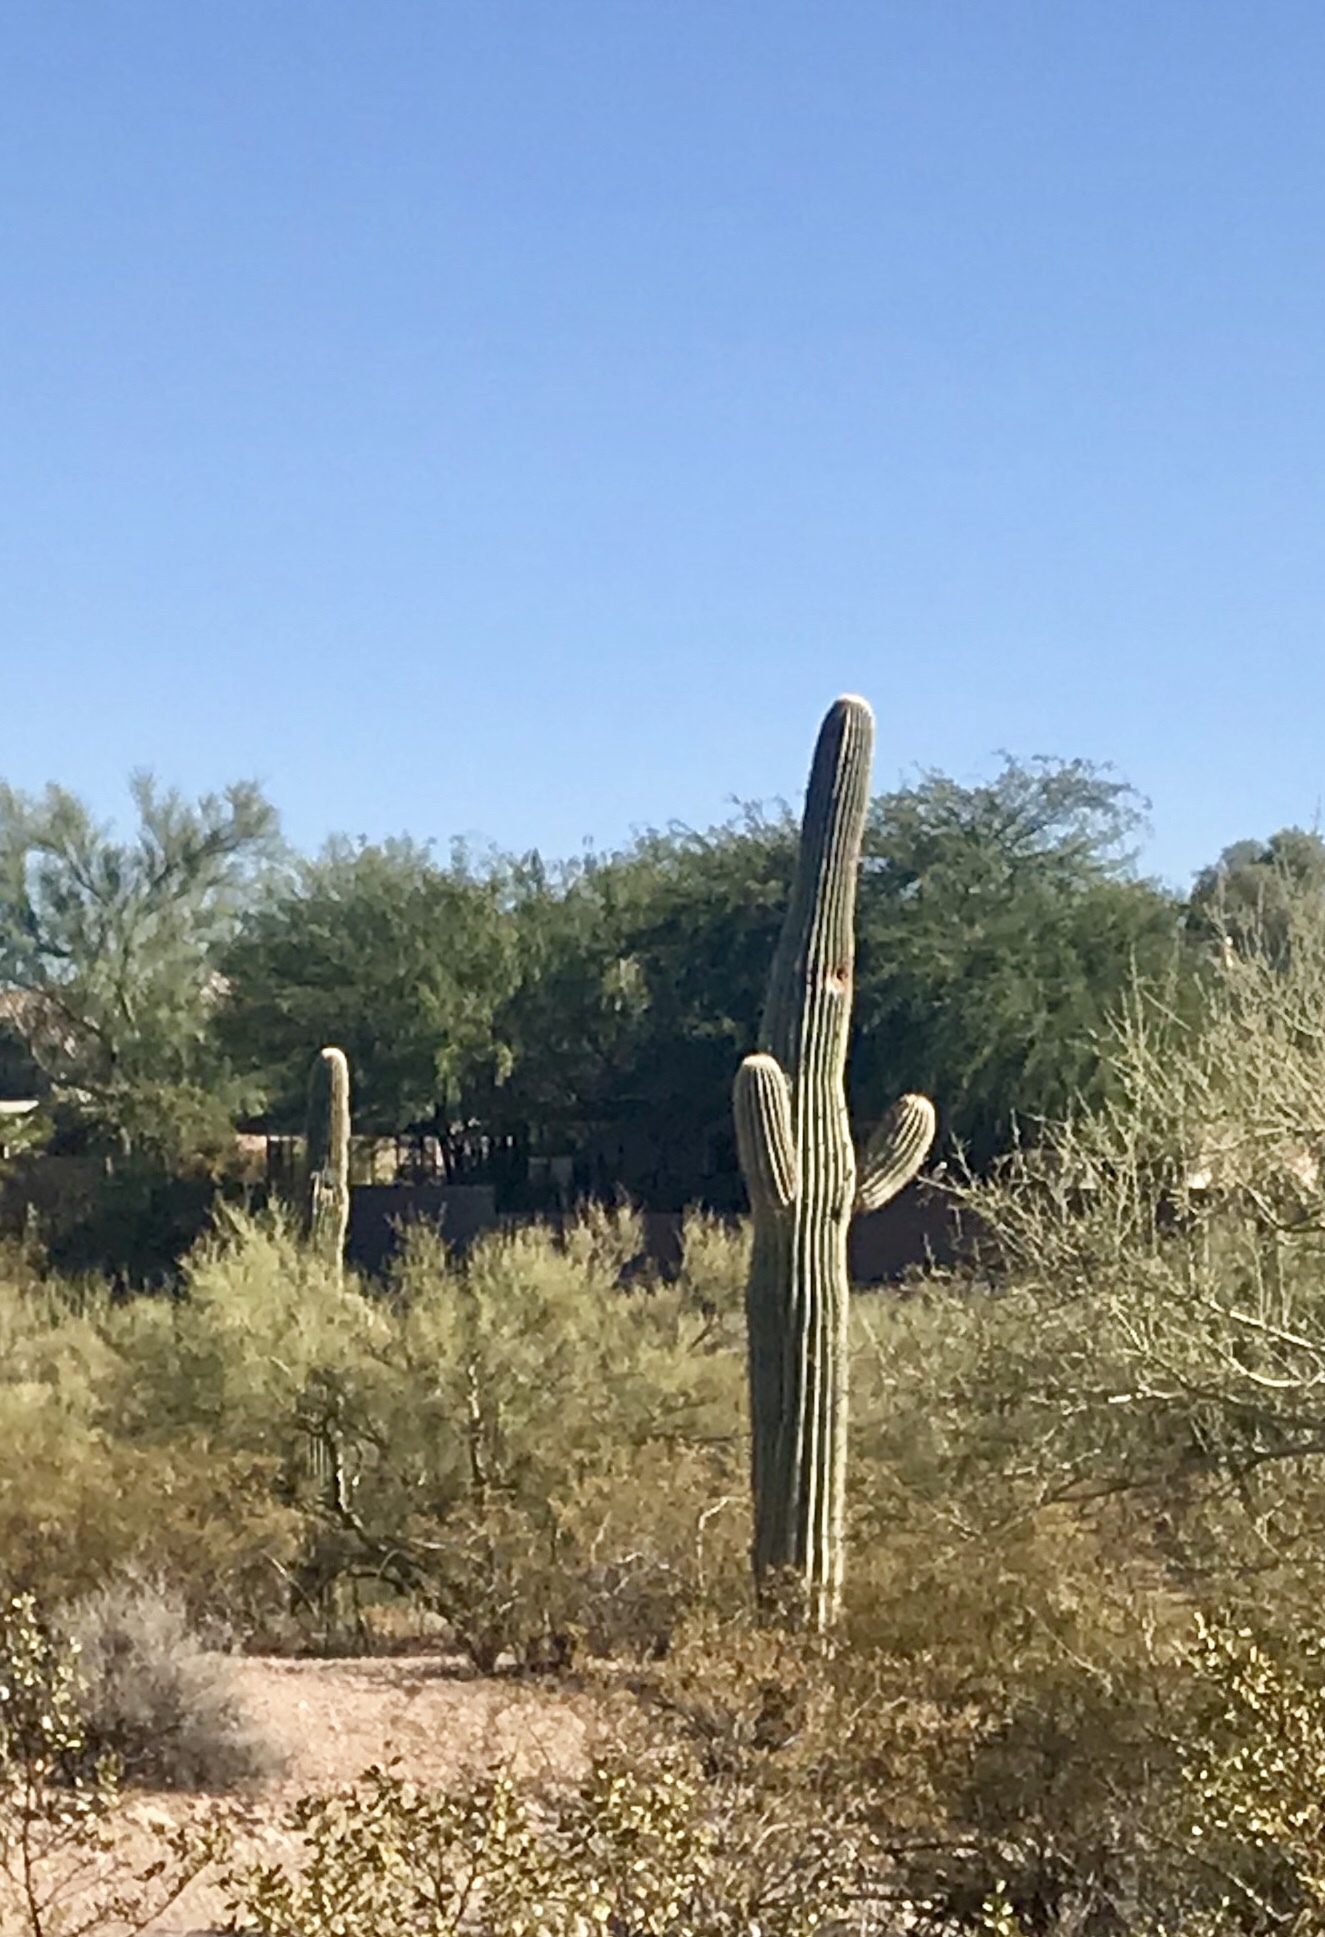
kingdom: Plantae
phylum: Tracheophyta
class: Magnoliopsida
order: Caryophyllales
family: Cactaceae
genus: Carnegiea
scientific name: Carnegiea gigantea
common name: Saguaro
